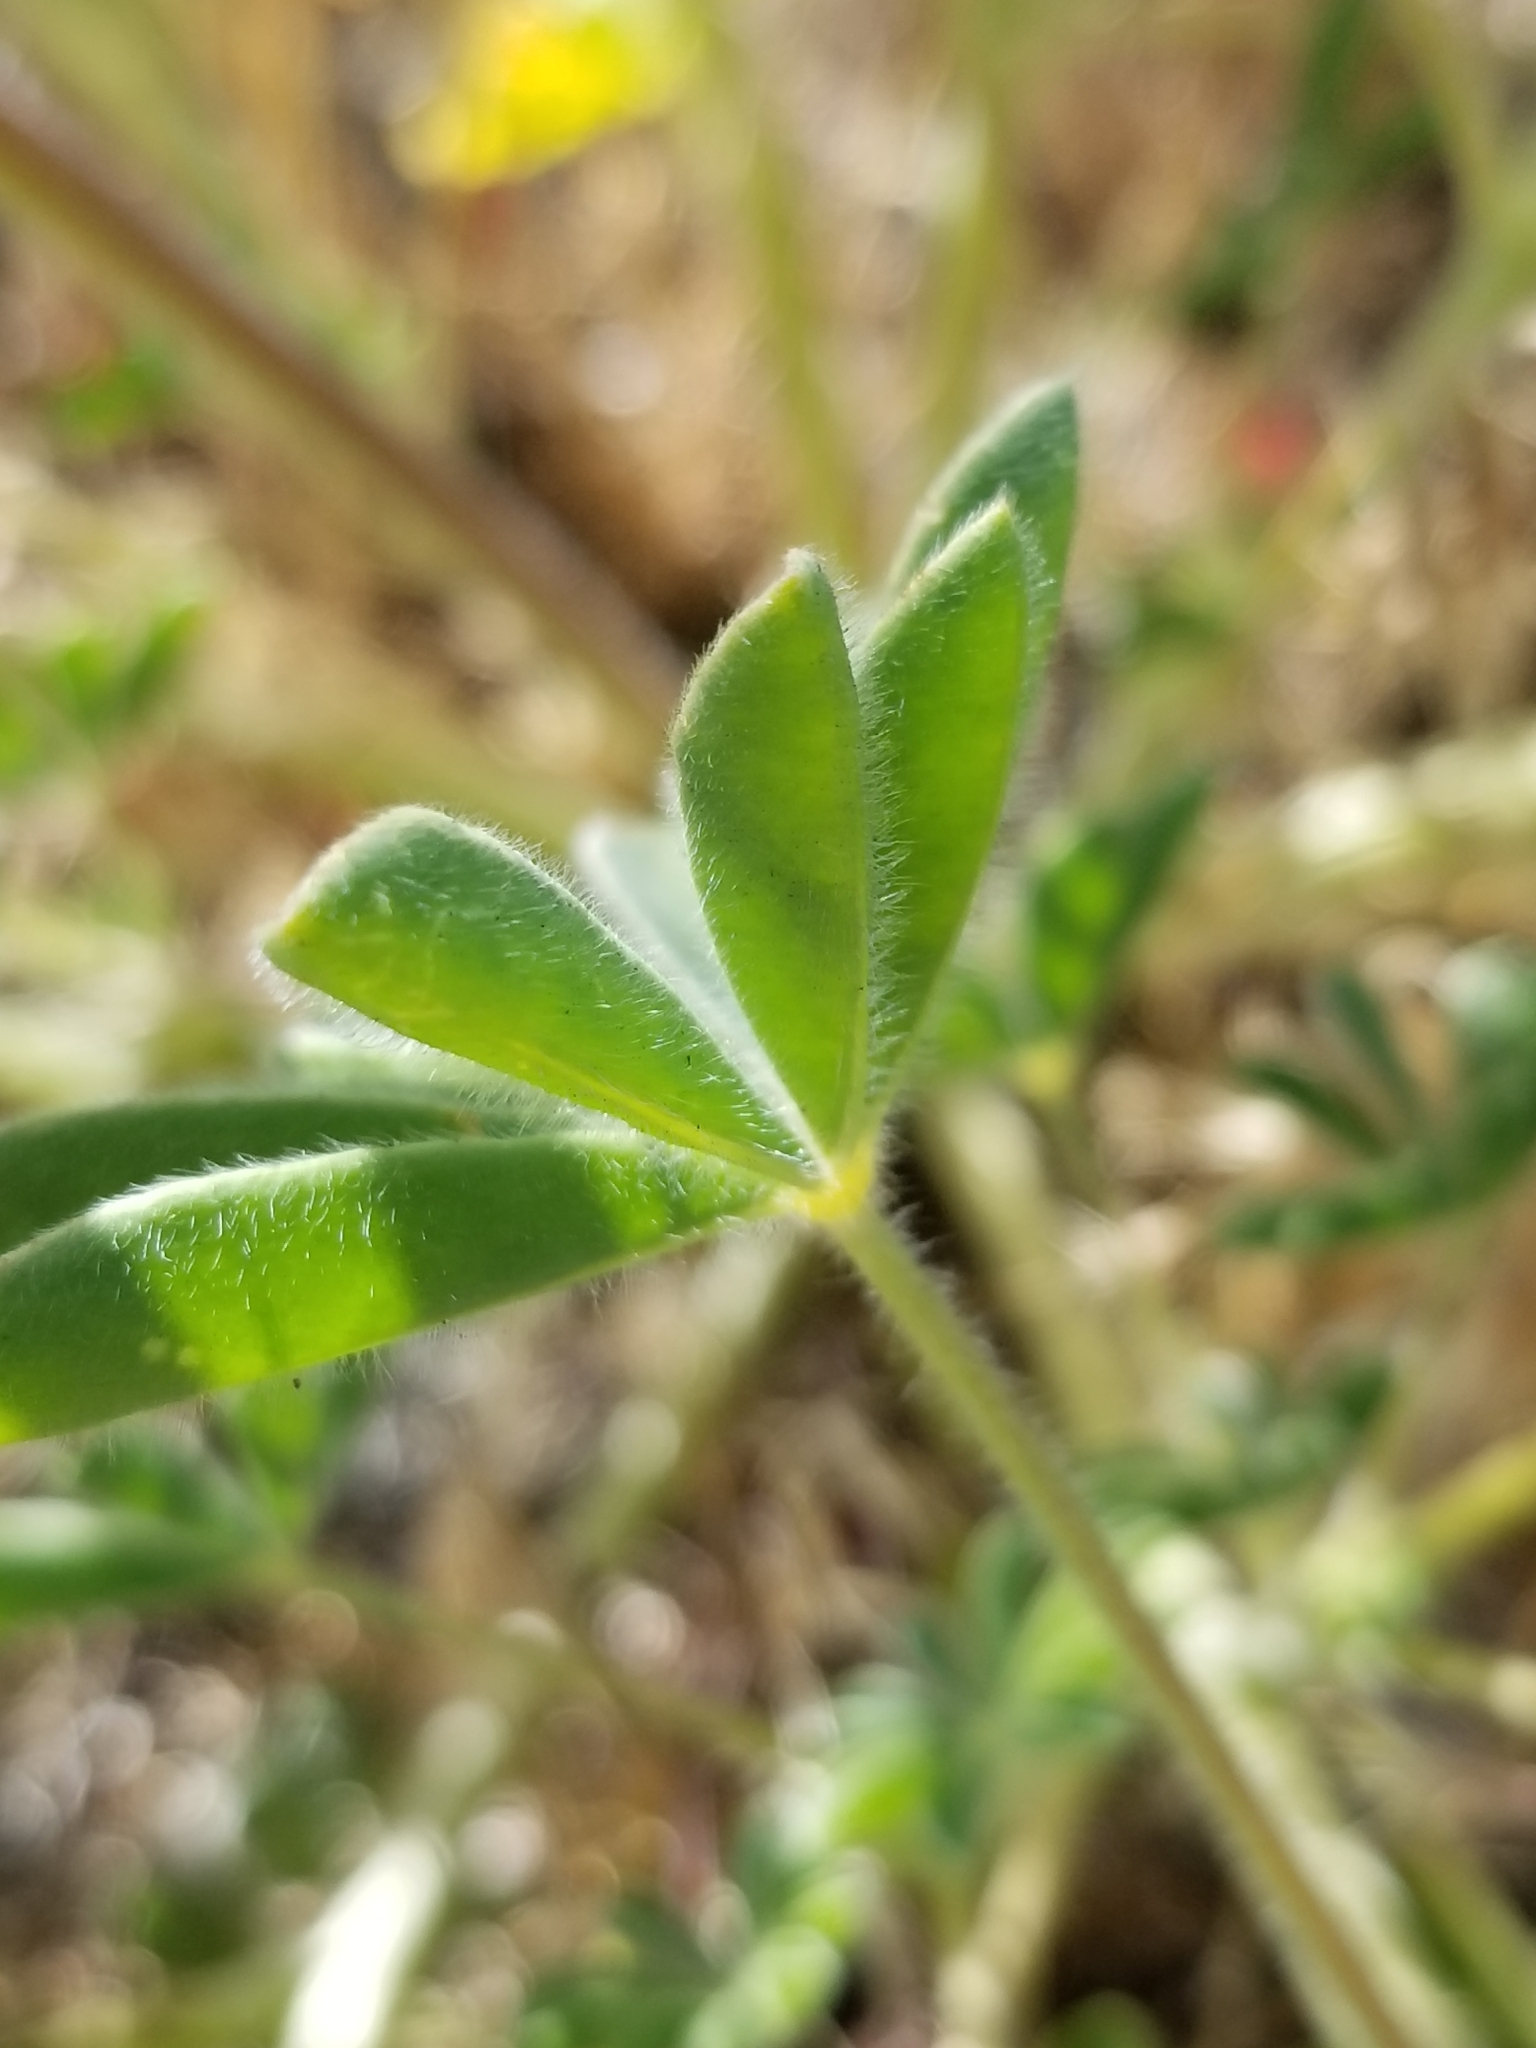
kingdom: Plantae
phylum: Tracheophyta
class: Magnoliopsida
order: Fabales
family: Fabaceae
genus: Lupinus
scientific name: Lupinus microcarpus
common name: Chick lupine
